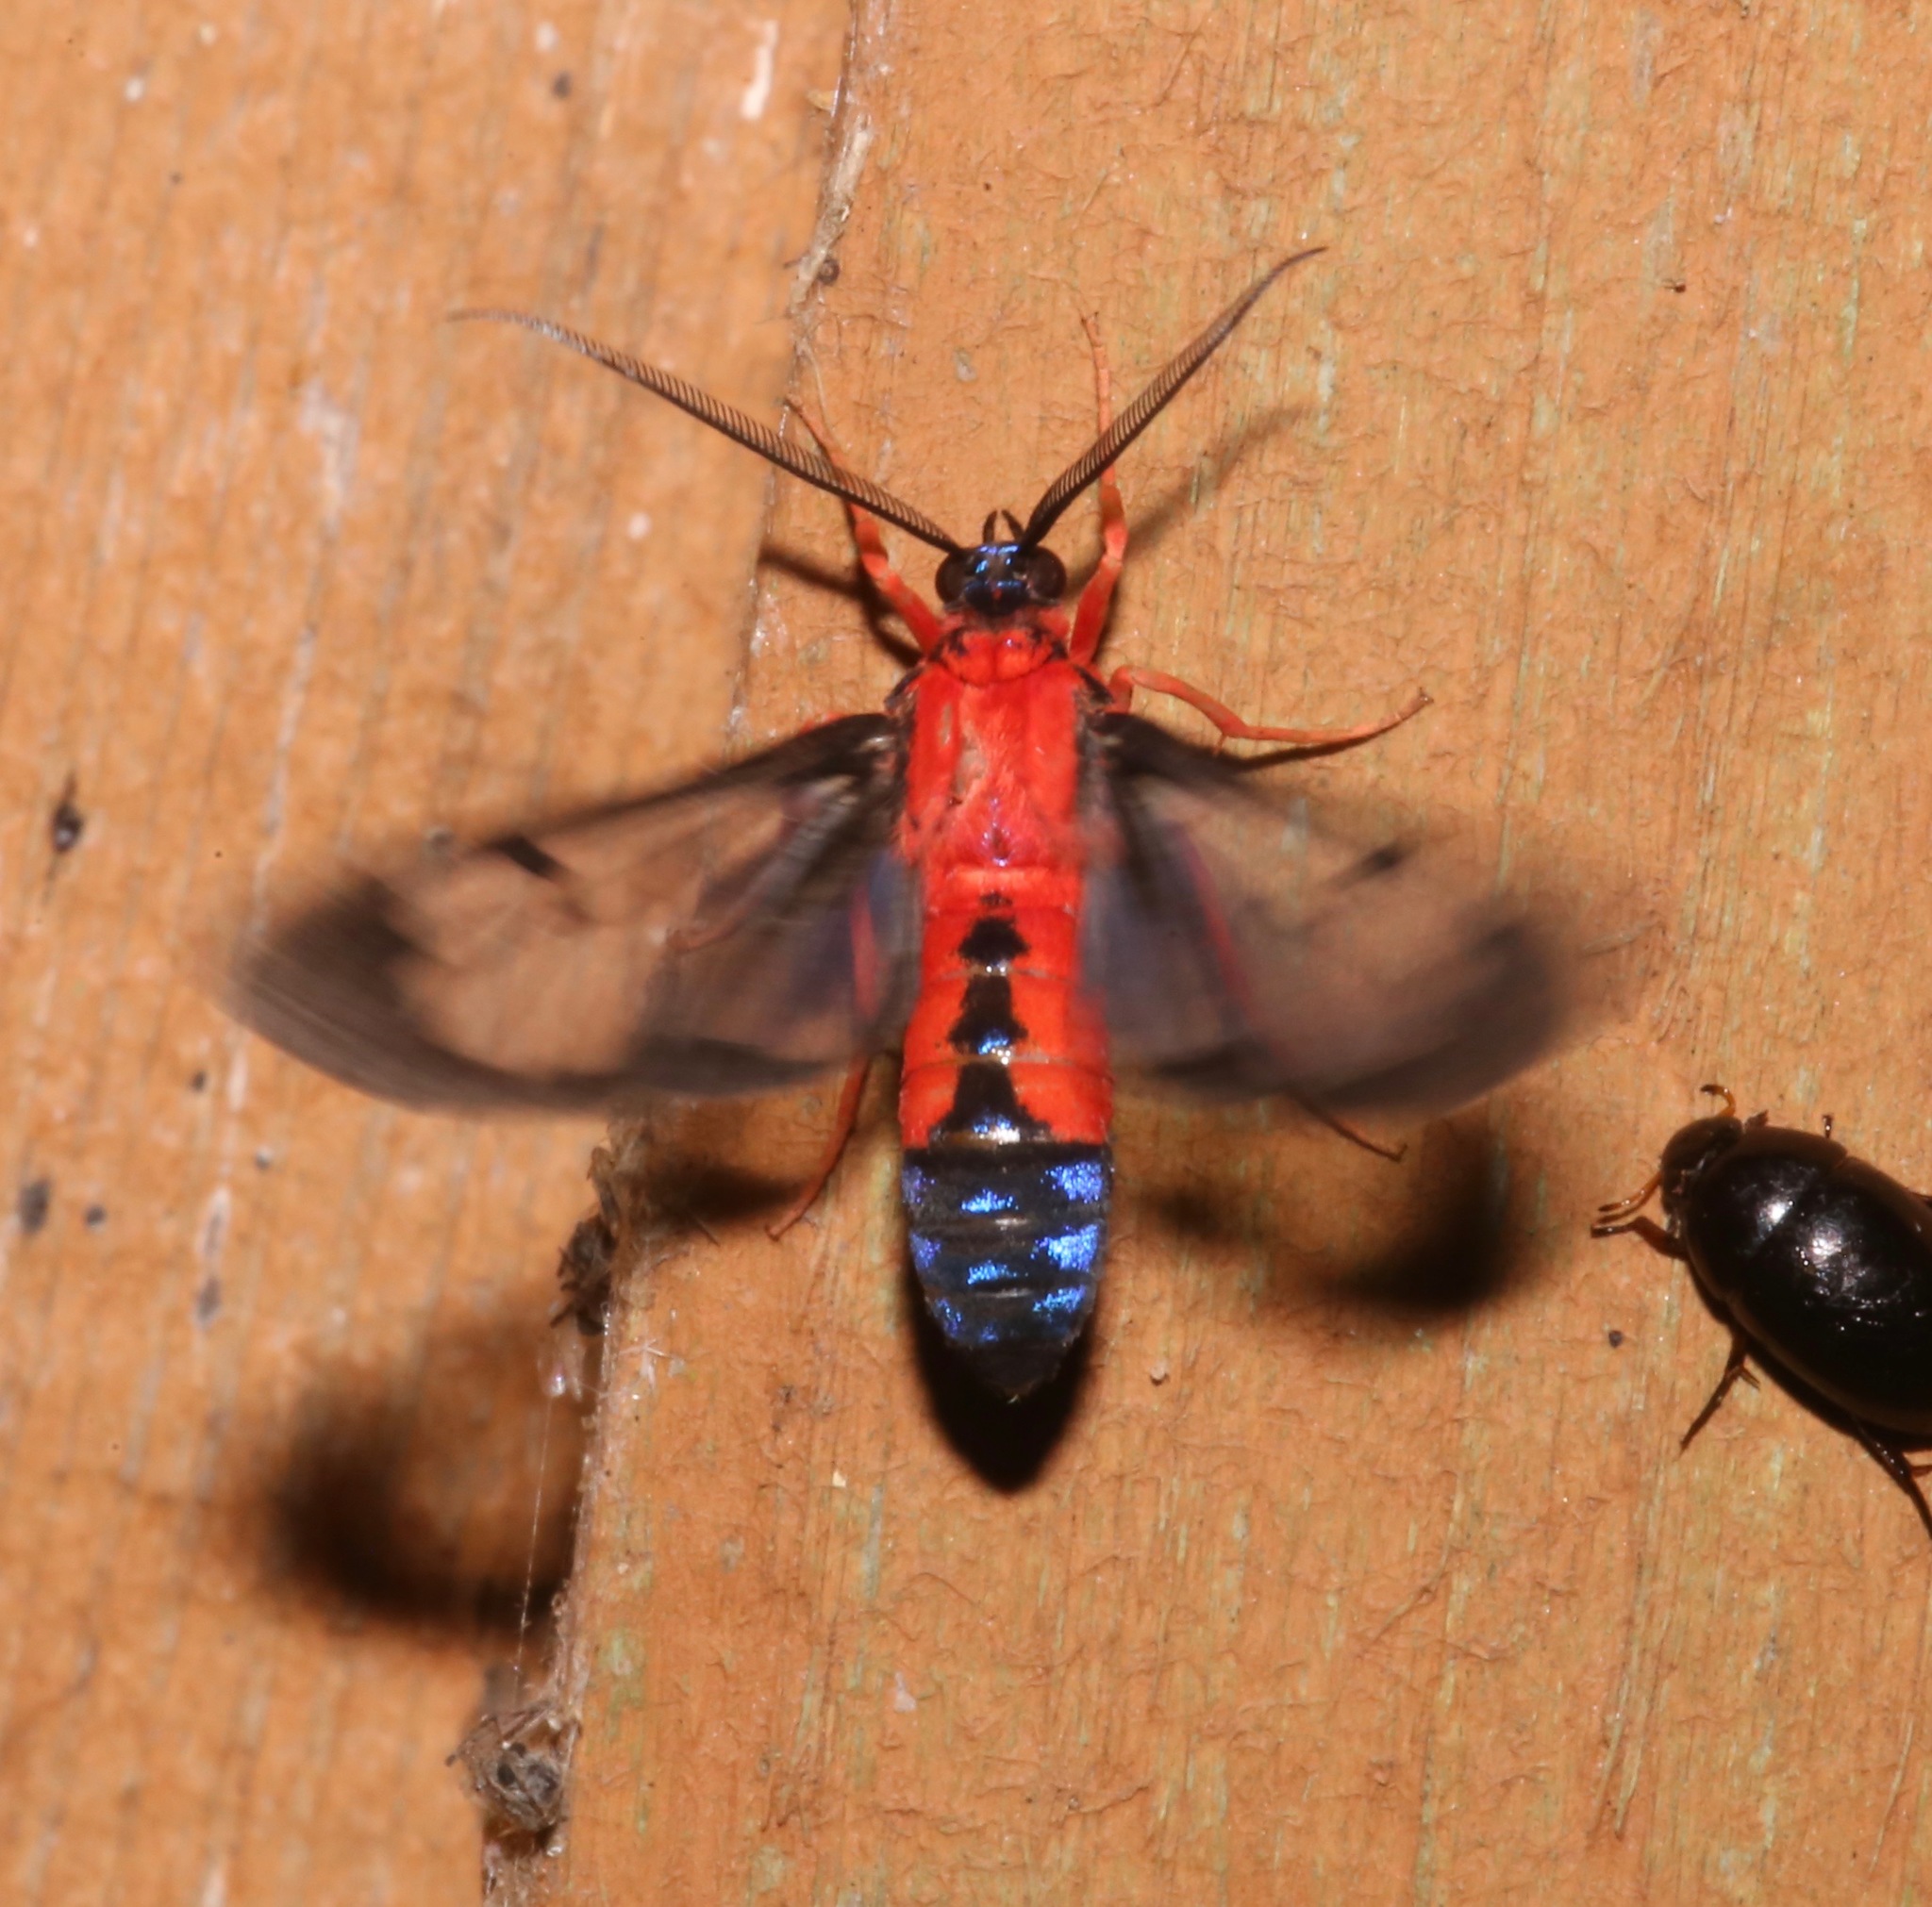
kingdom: Animalia
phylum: Arthropoda
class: Insecta
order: Lepidoptera
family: Erebidae
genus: Cosmosoma
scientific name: Cosmosoma myrodora
